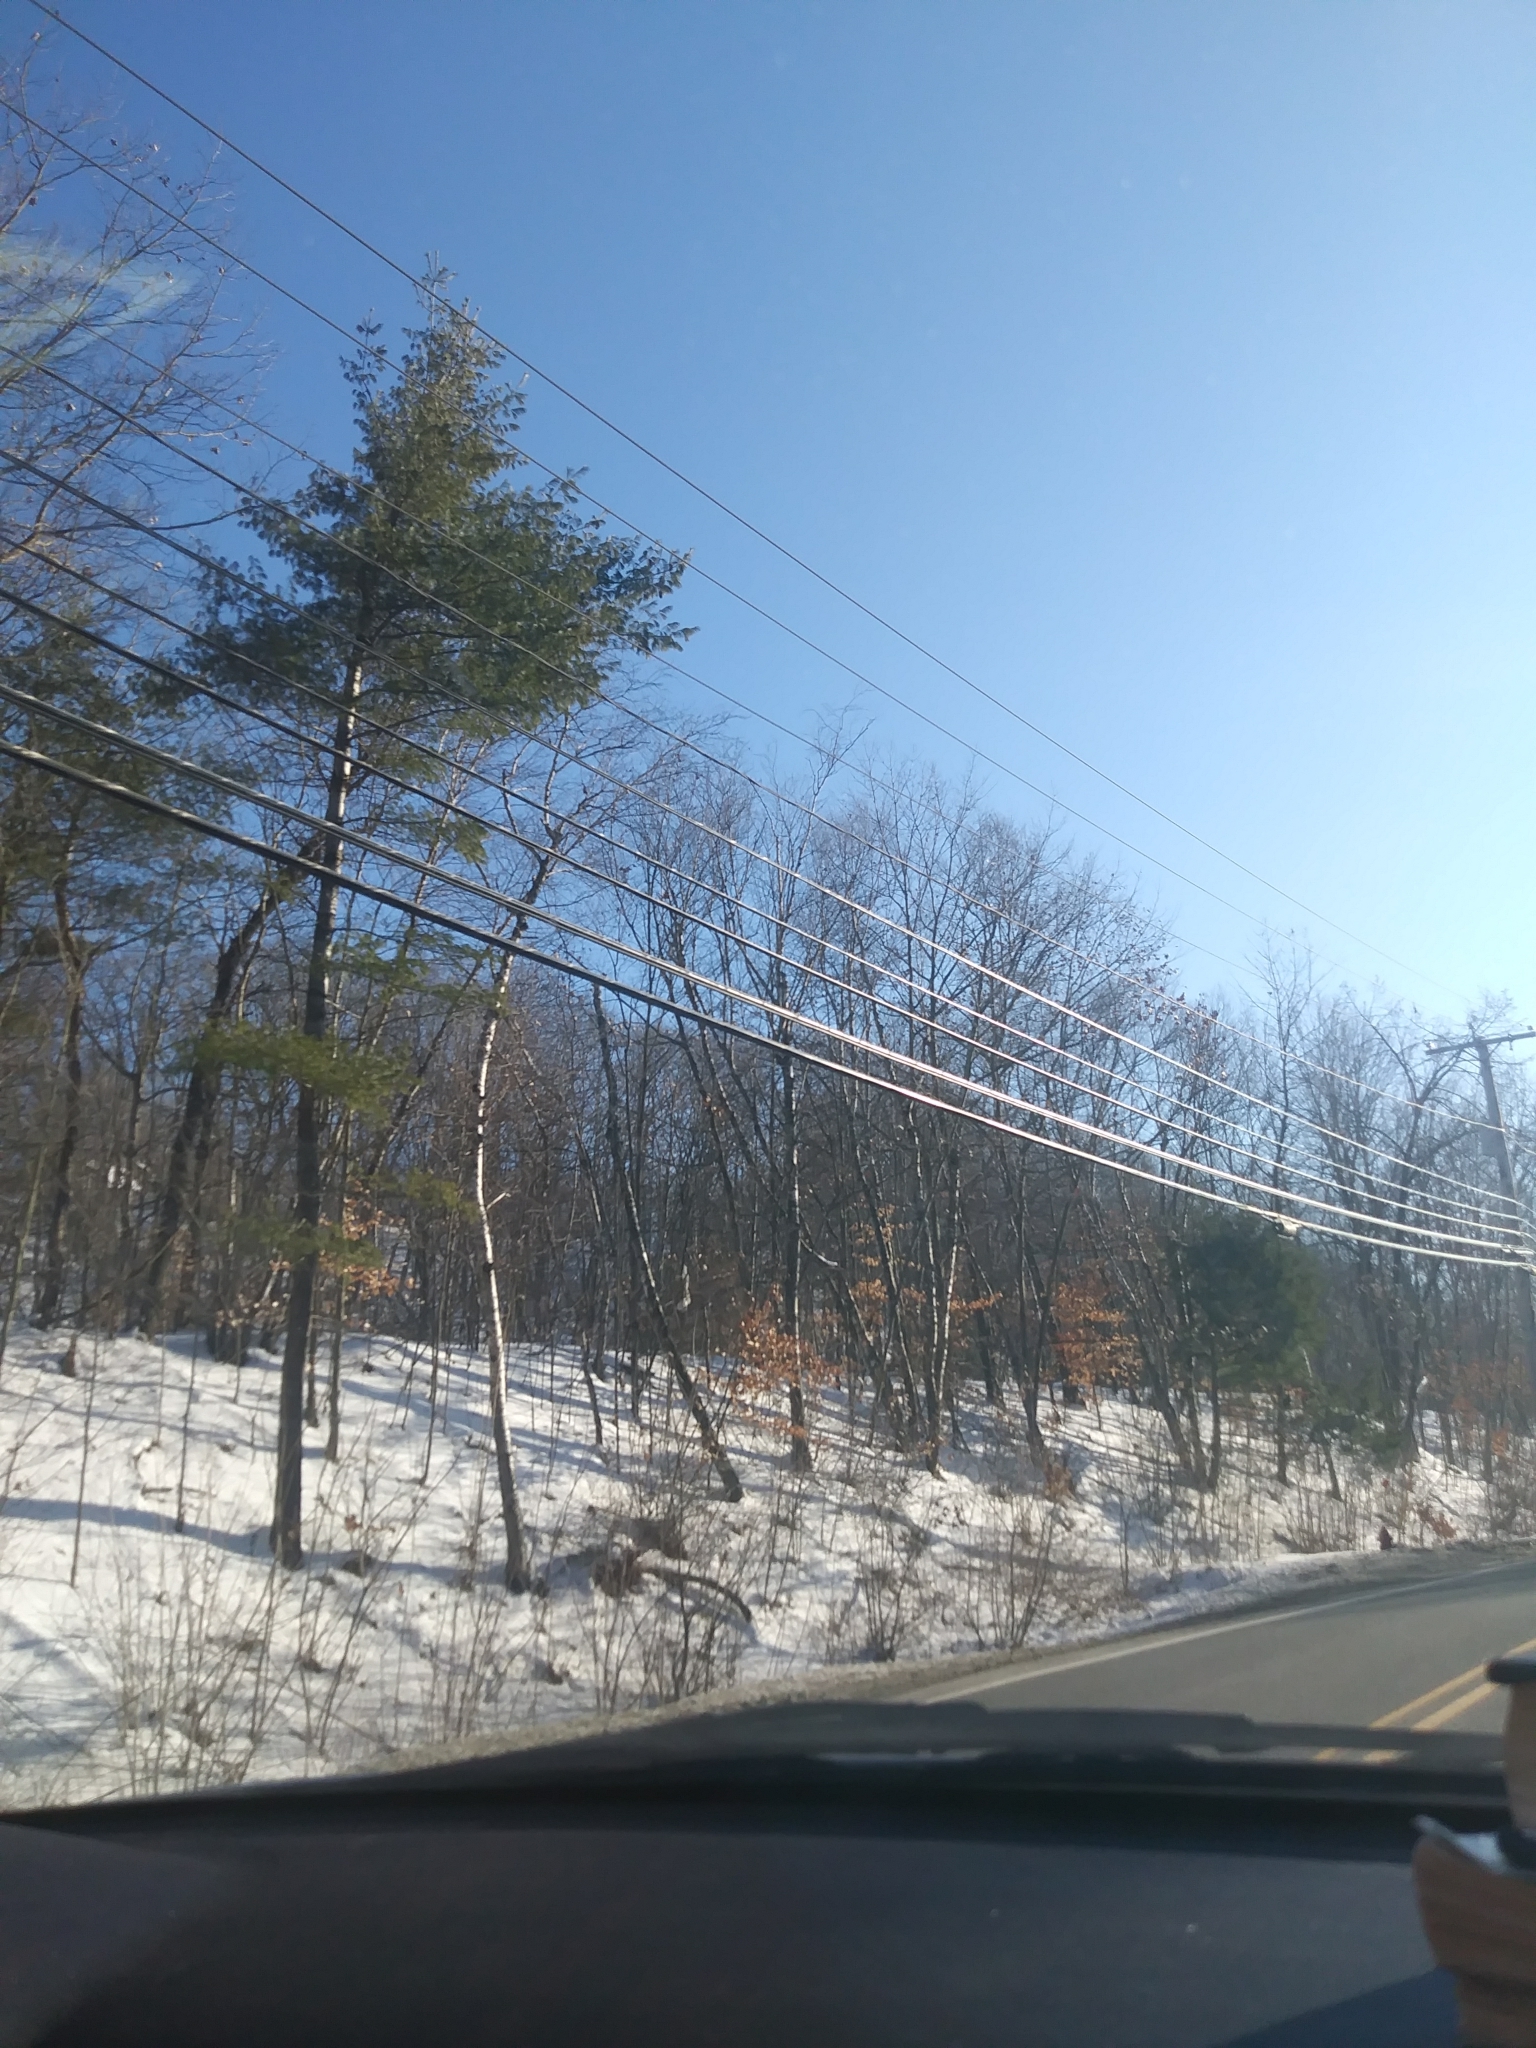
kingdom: Plantae
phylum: Tracheophyta
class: Pinopsida
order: Pinales
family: Pinaceae
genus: Pinus
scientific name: Pinus strobus
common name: Weymouth pine
